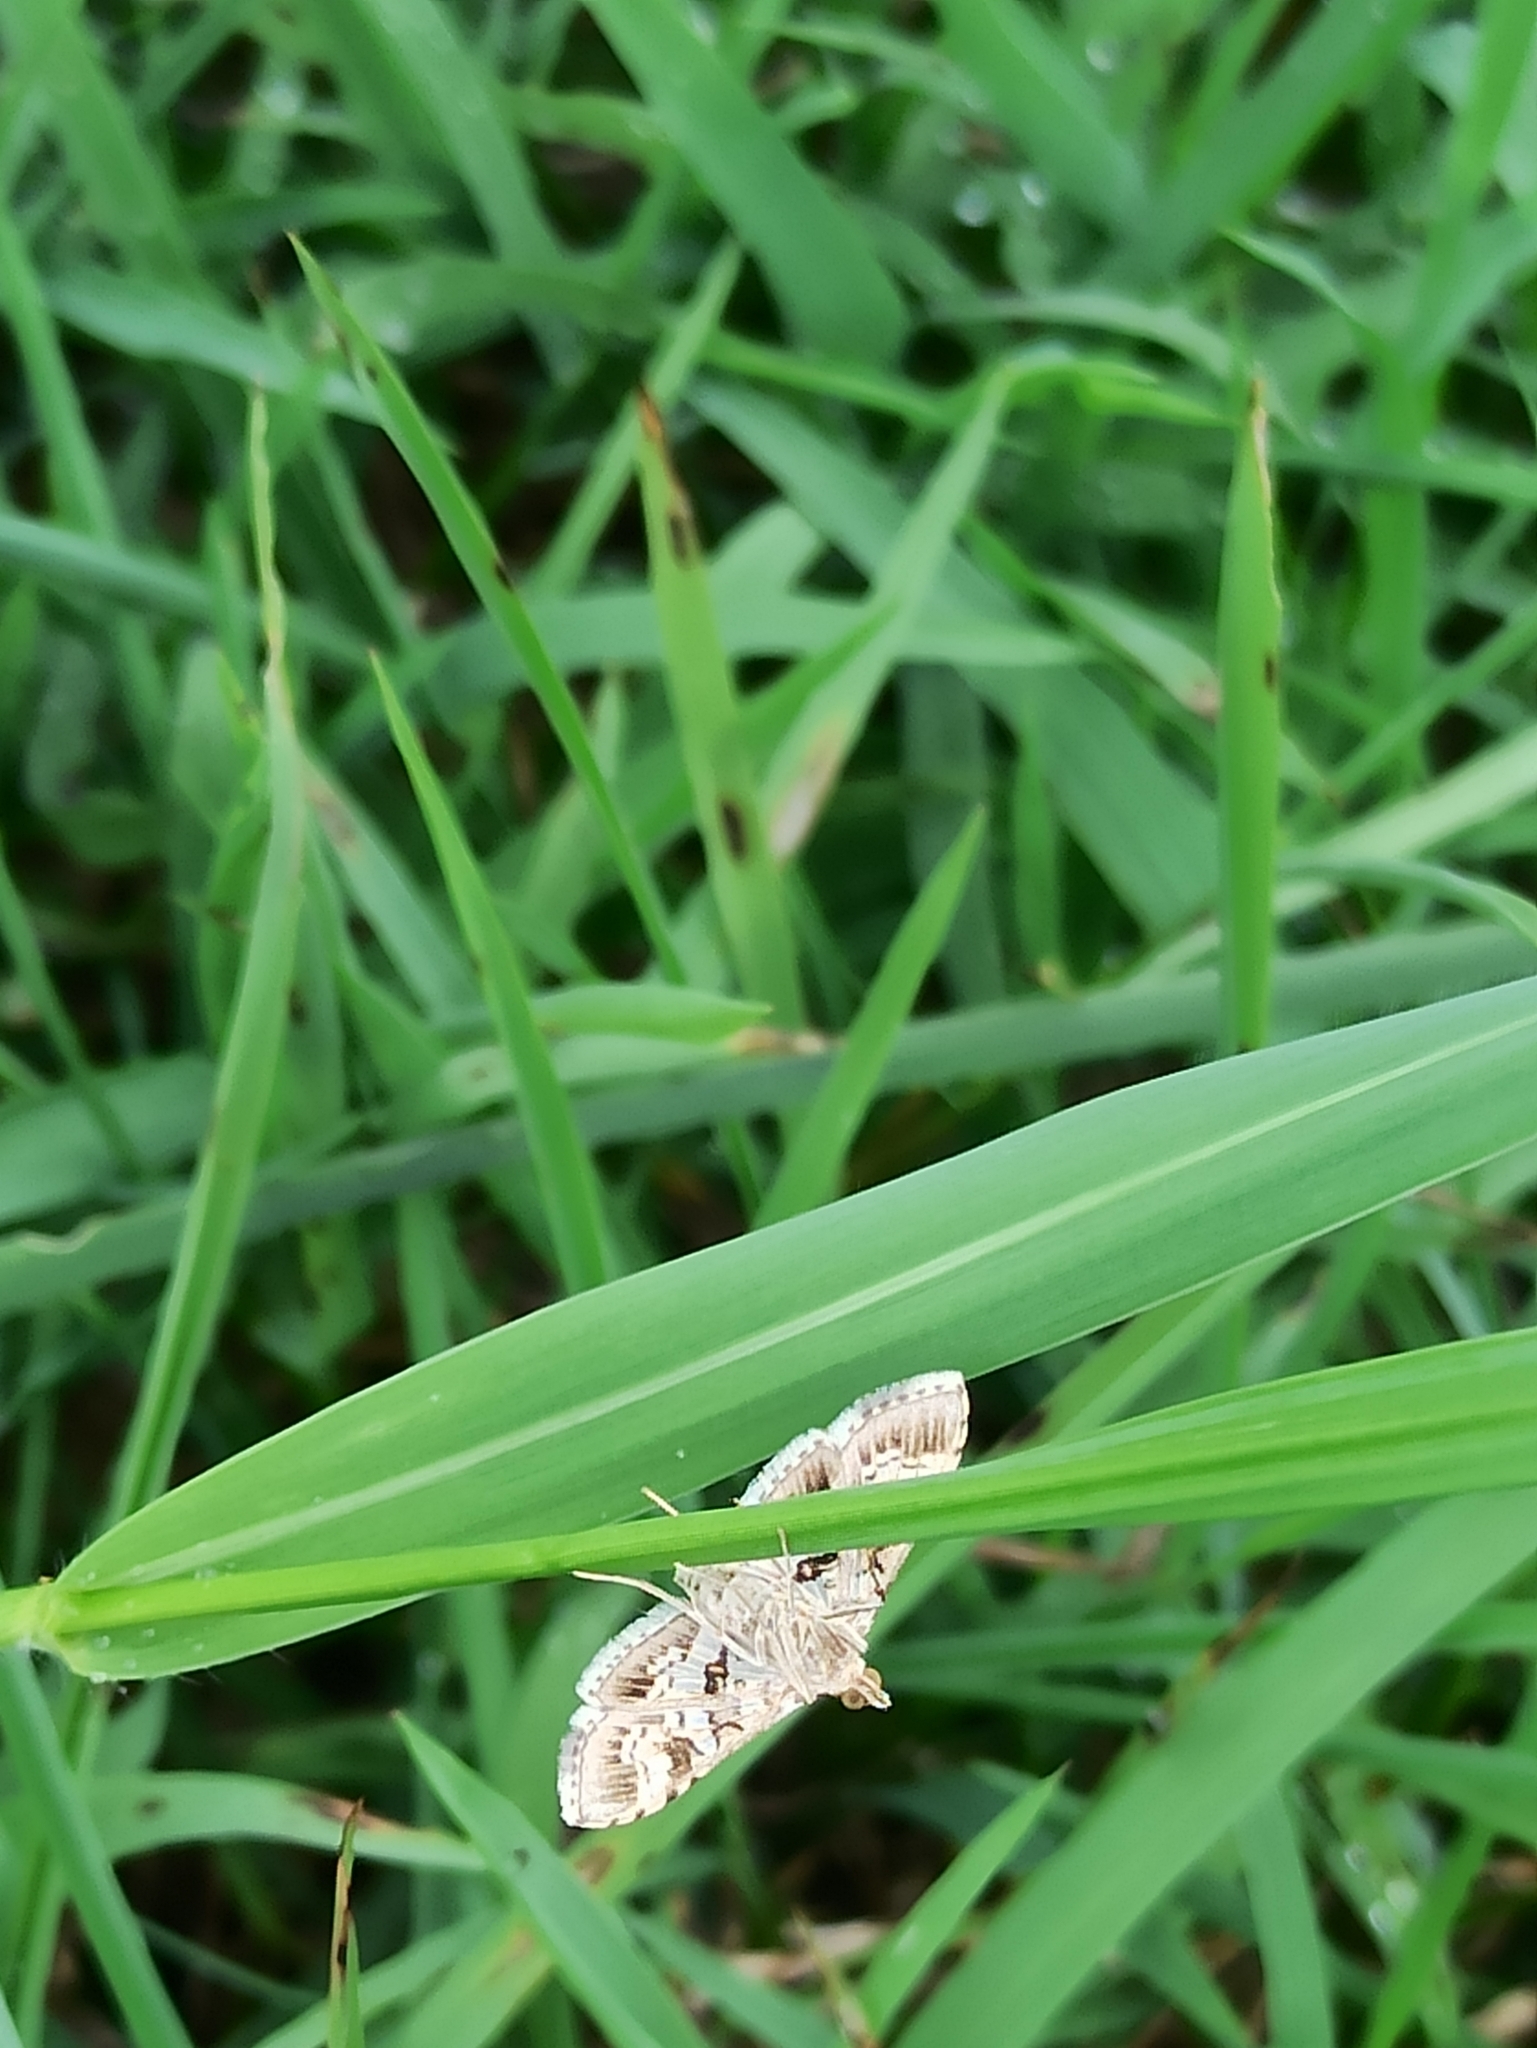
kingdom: Animalia
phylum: Arthropoda
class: Insecta
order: Lepidoptera
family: Crambidae
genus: Sameodes
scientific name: Sameodes cancellalis
